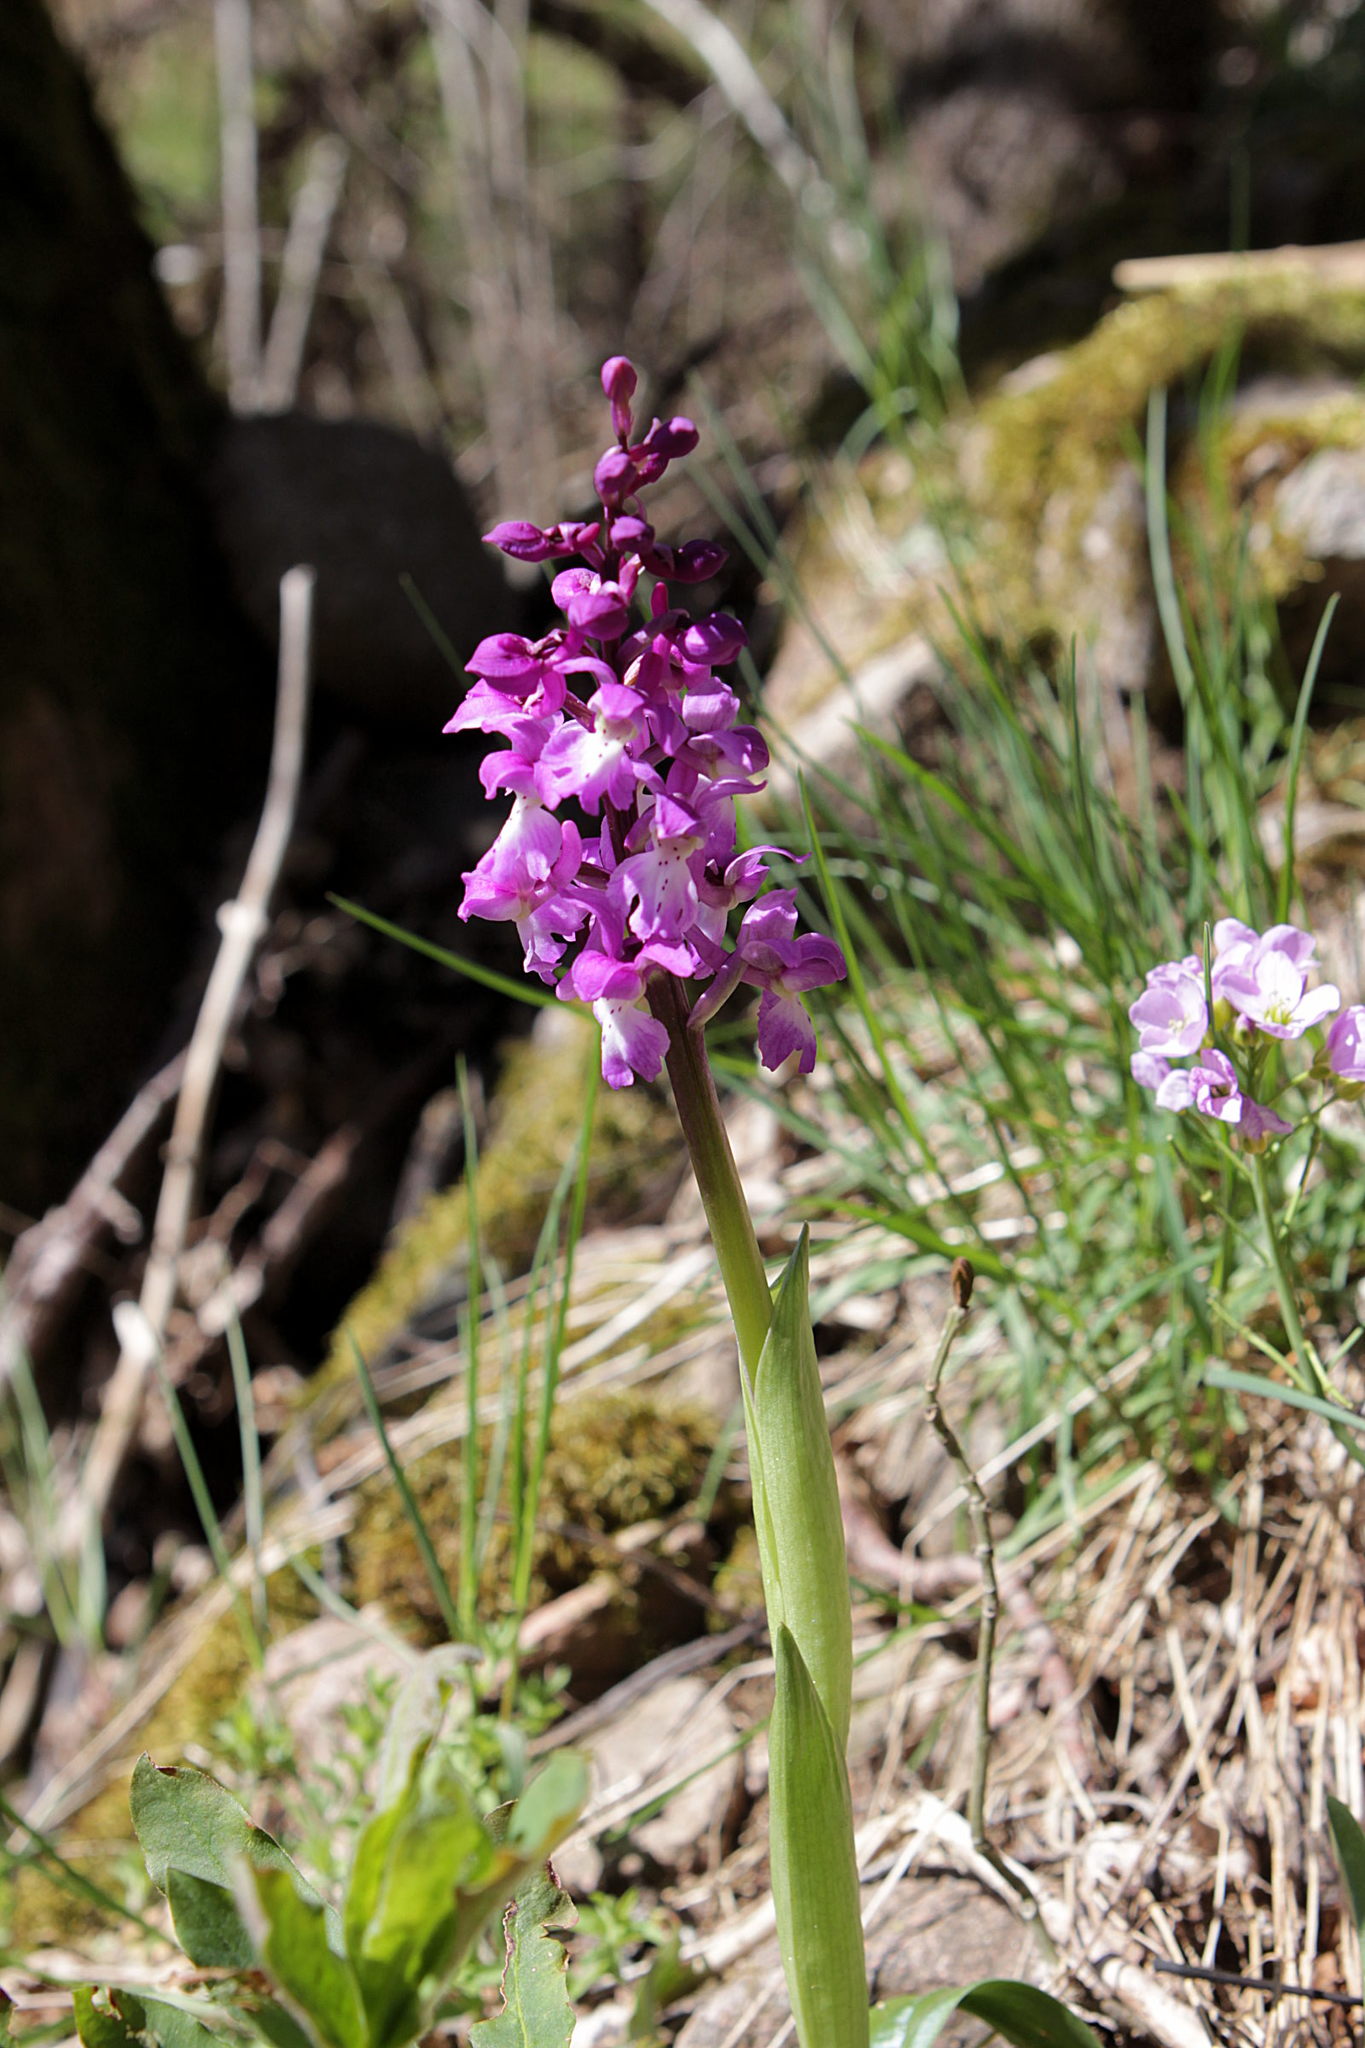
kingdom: Plantae
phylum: Tracheophyta
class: Liliopsida
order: Asparagales
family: Orchidaceae
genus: Orchis
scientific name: Orchis mascula
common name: Early-purple orchid
